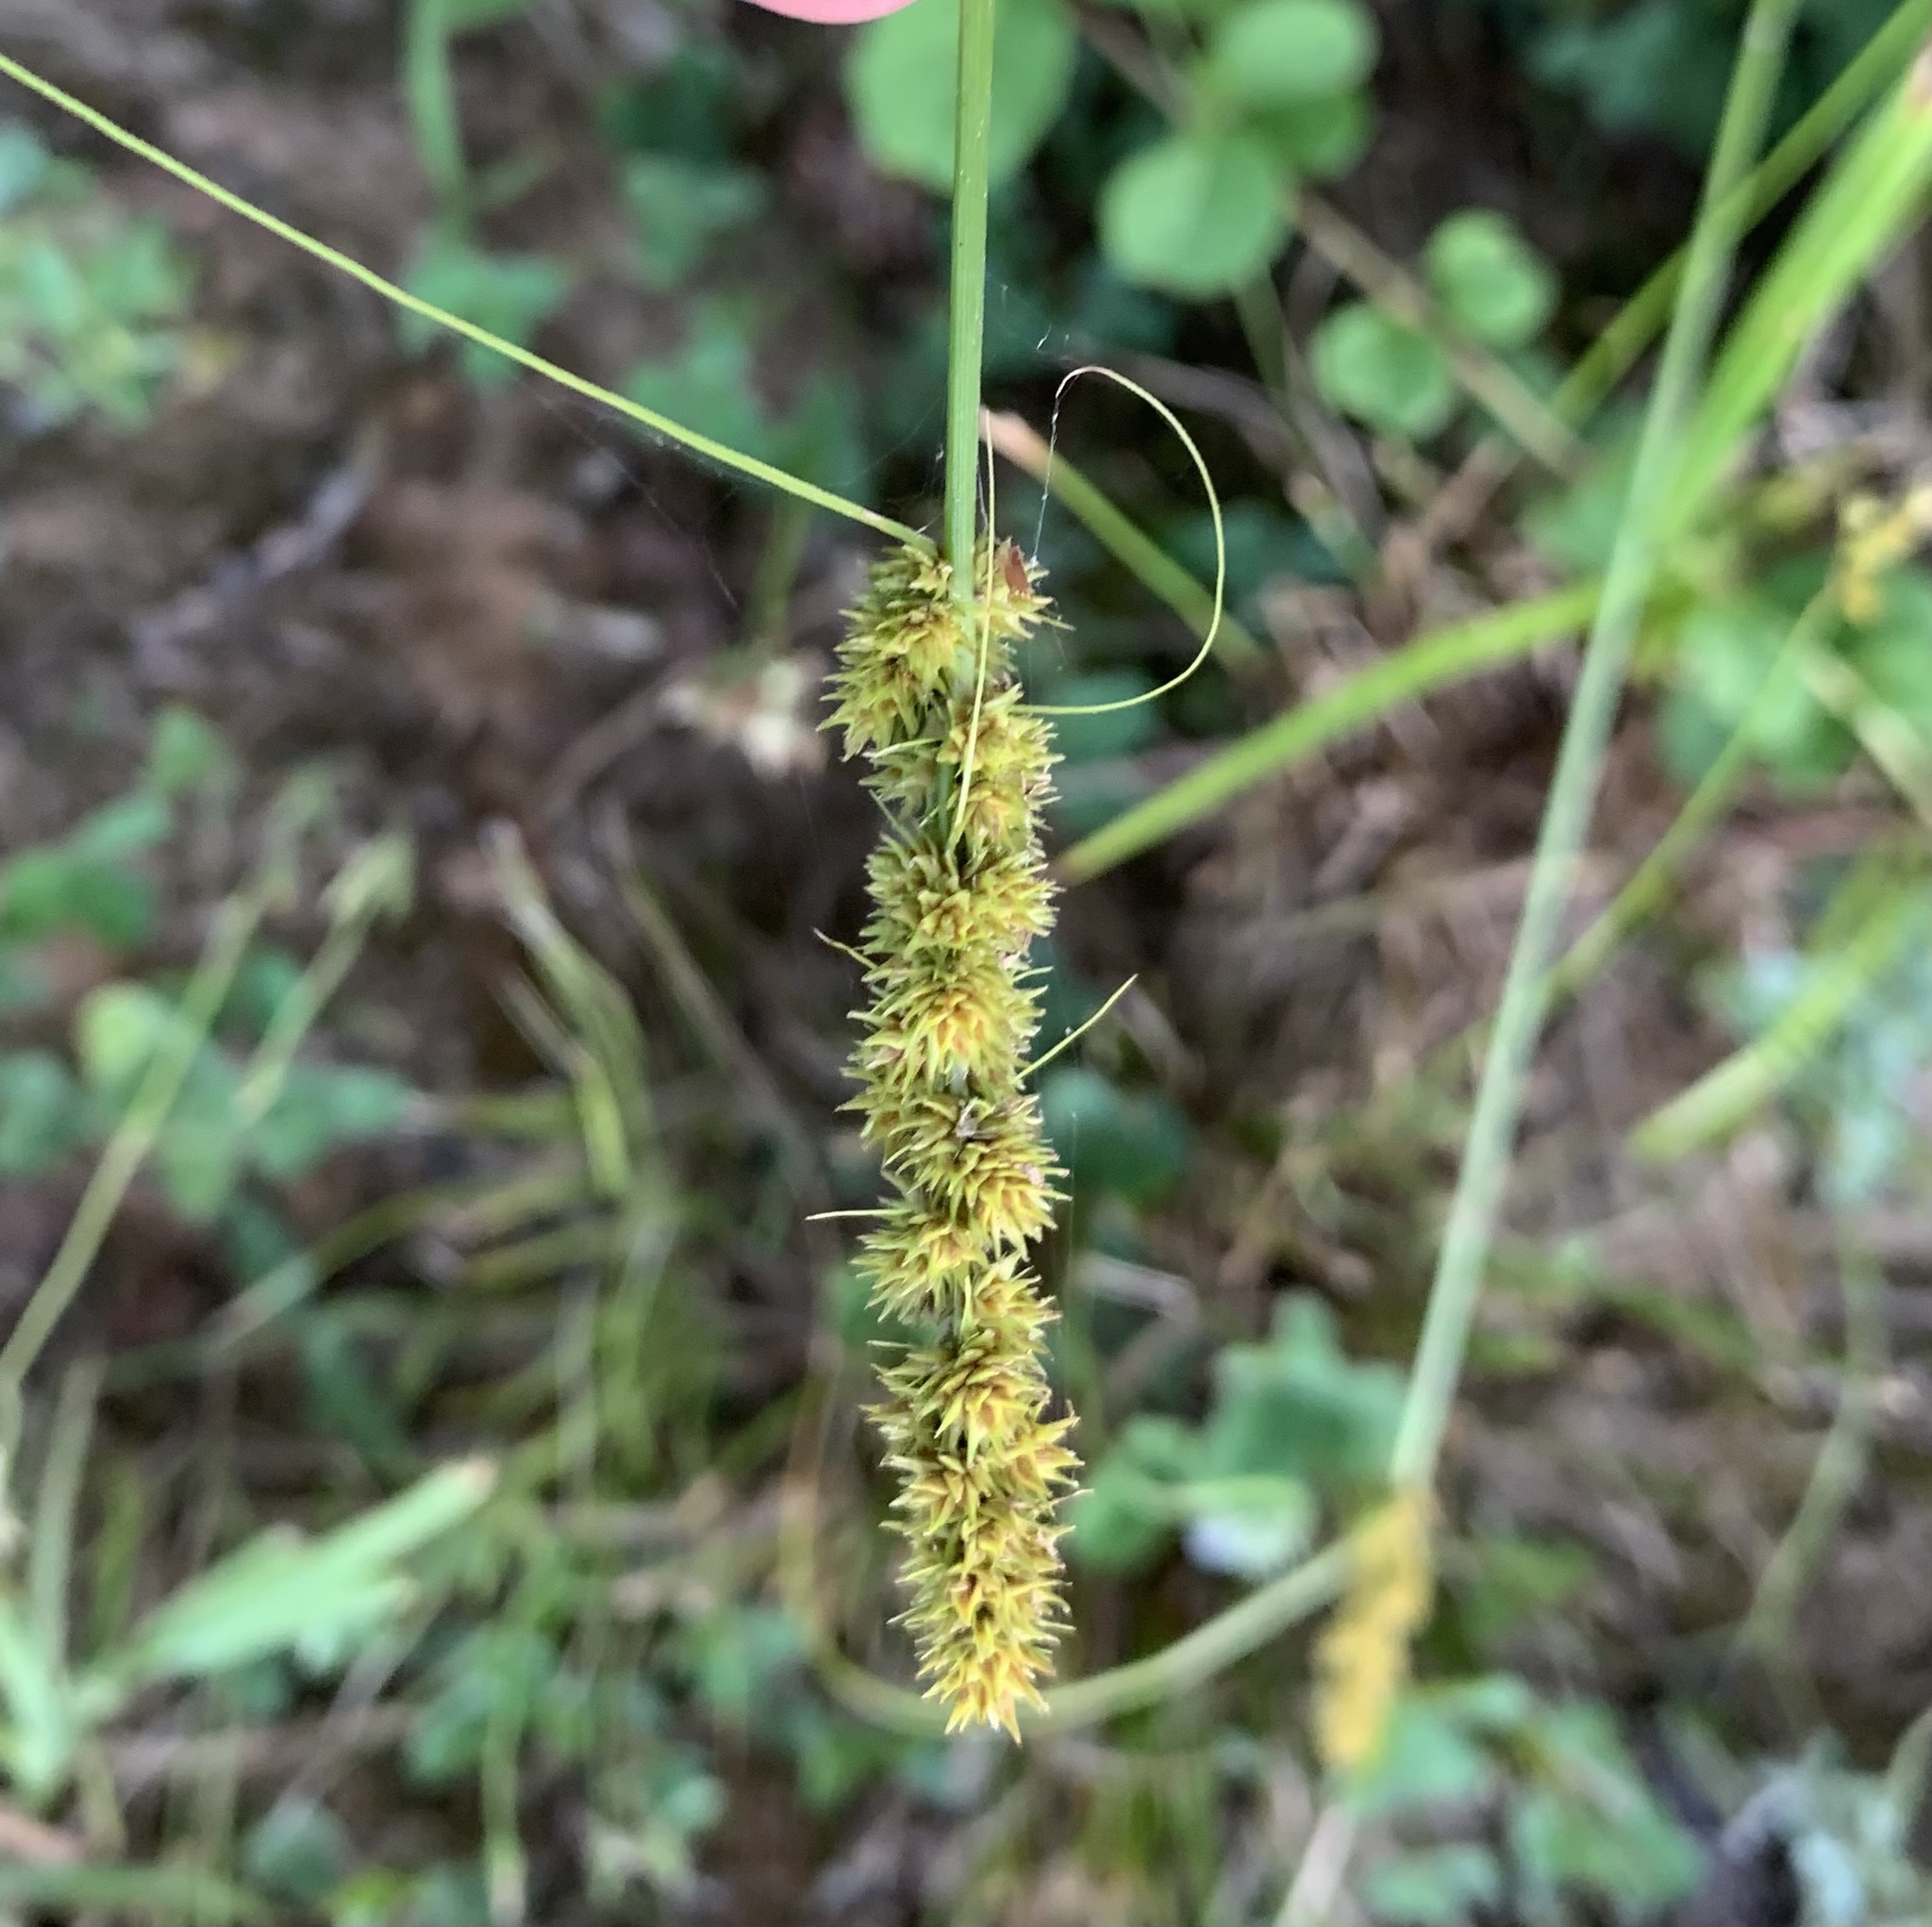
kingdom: Plantae
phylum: Tracheophyta
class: Liliopsida
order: Poales
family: Cyperaceae
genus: Carex
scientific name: Carex vulpinoidea
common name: American fox-sedge
